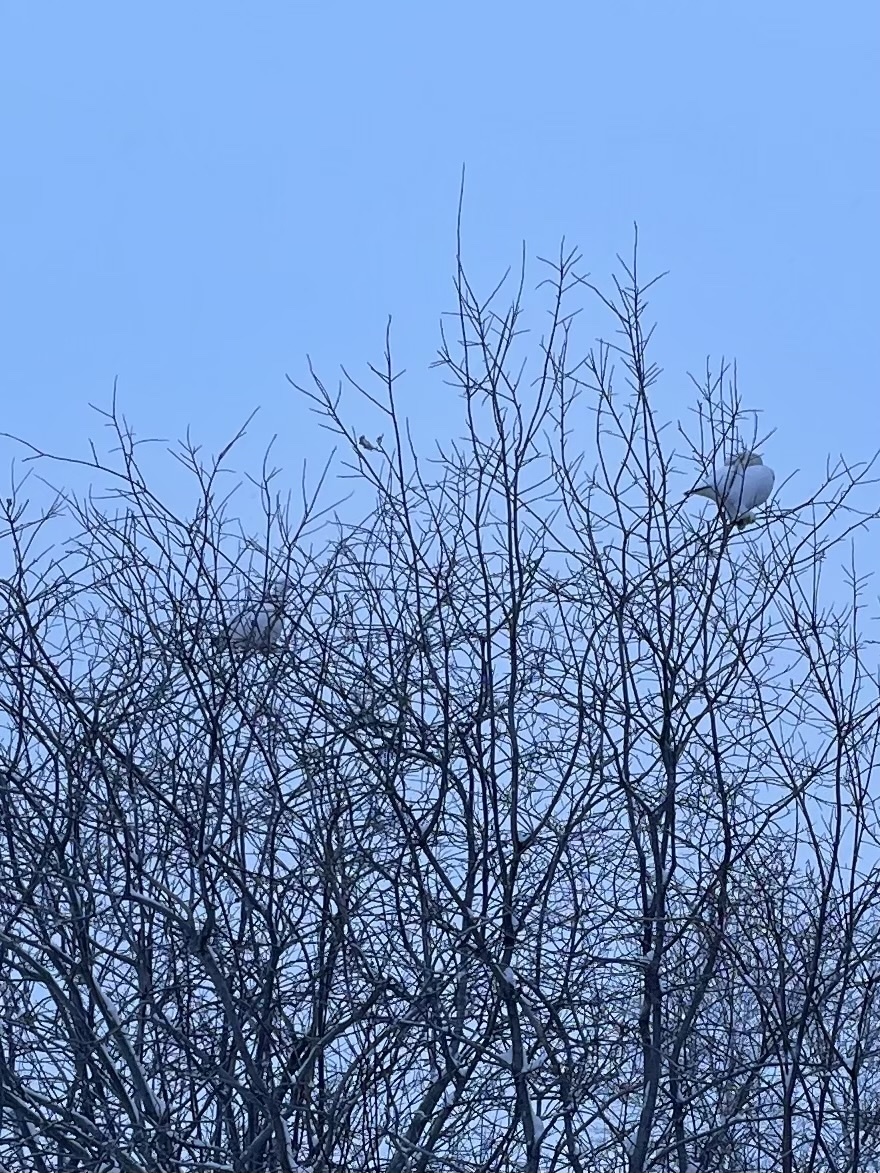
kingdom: Animalia
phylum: Chordata
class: Aves
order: Galliformes
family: Phasianidae
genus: Lagopus
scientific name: Lagopus lagopus
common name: Willow ptarmigan
